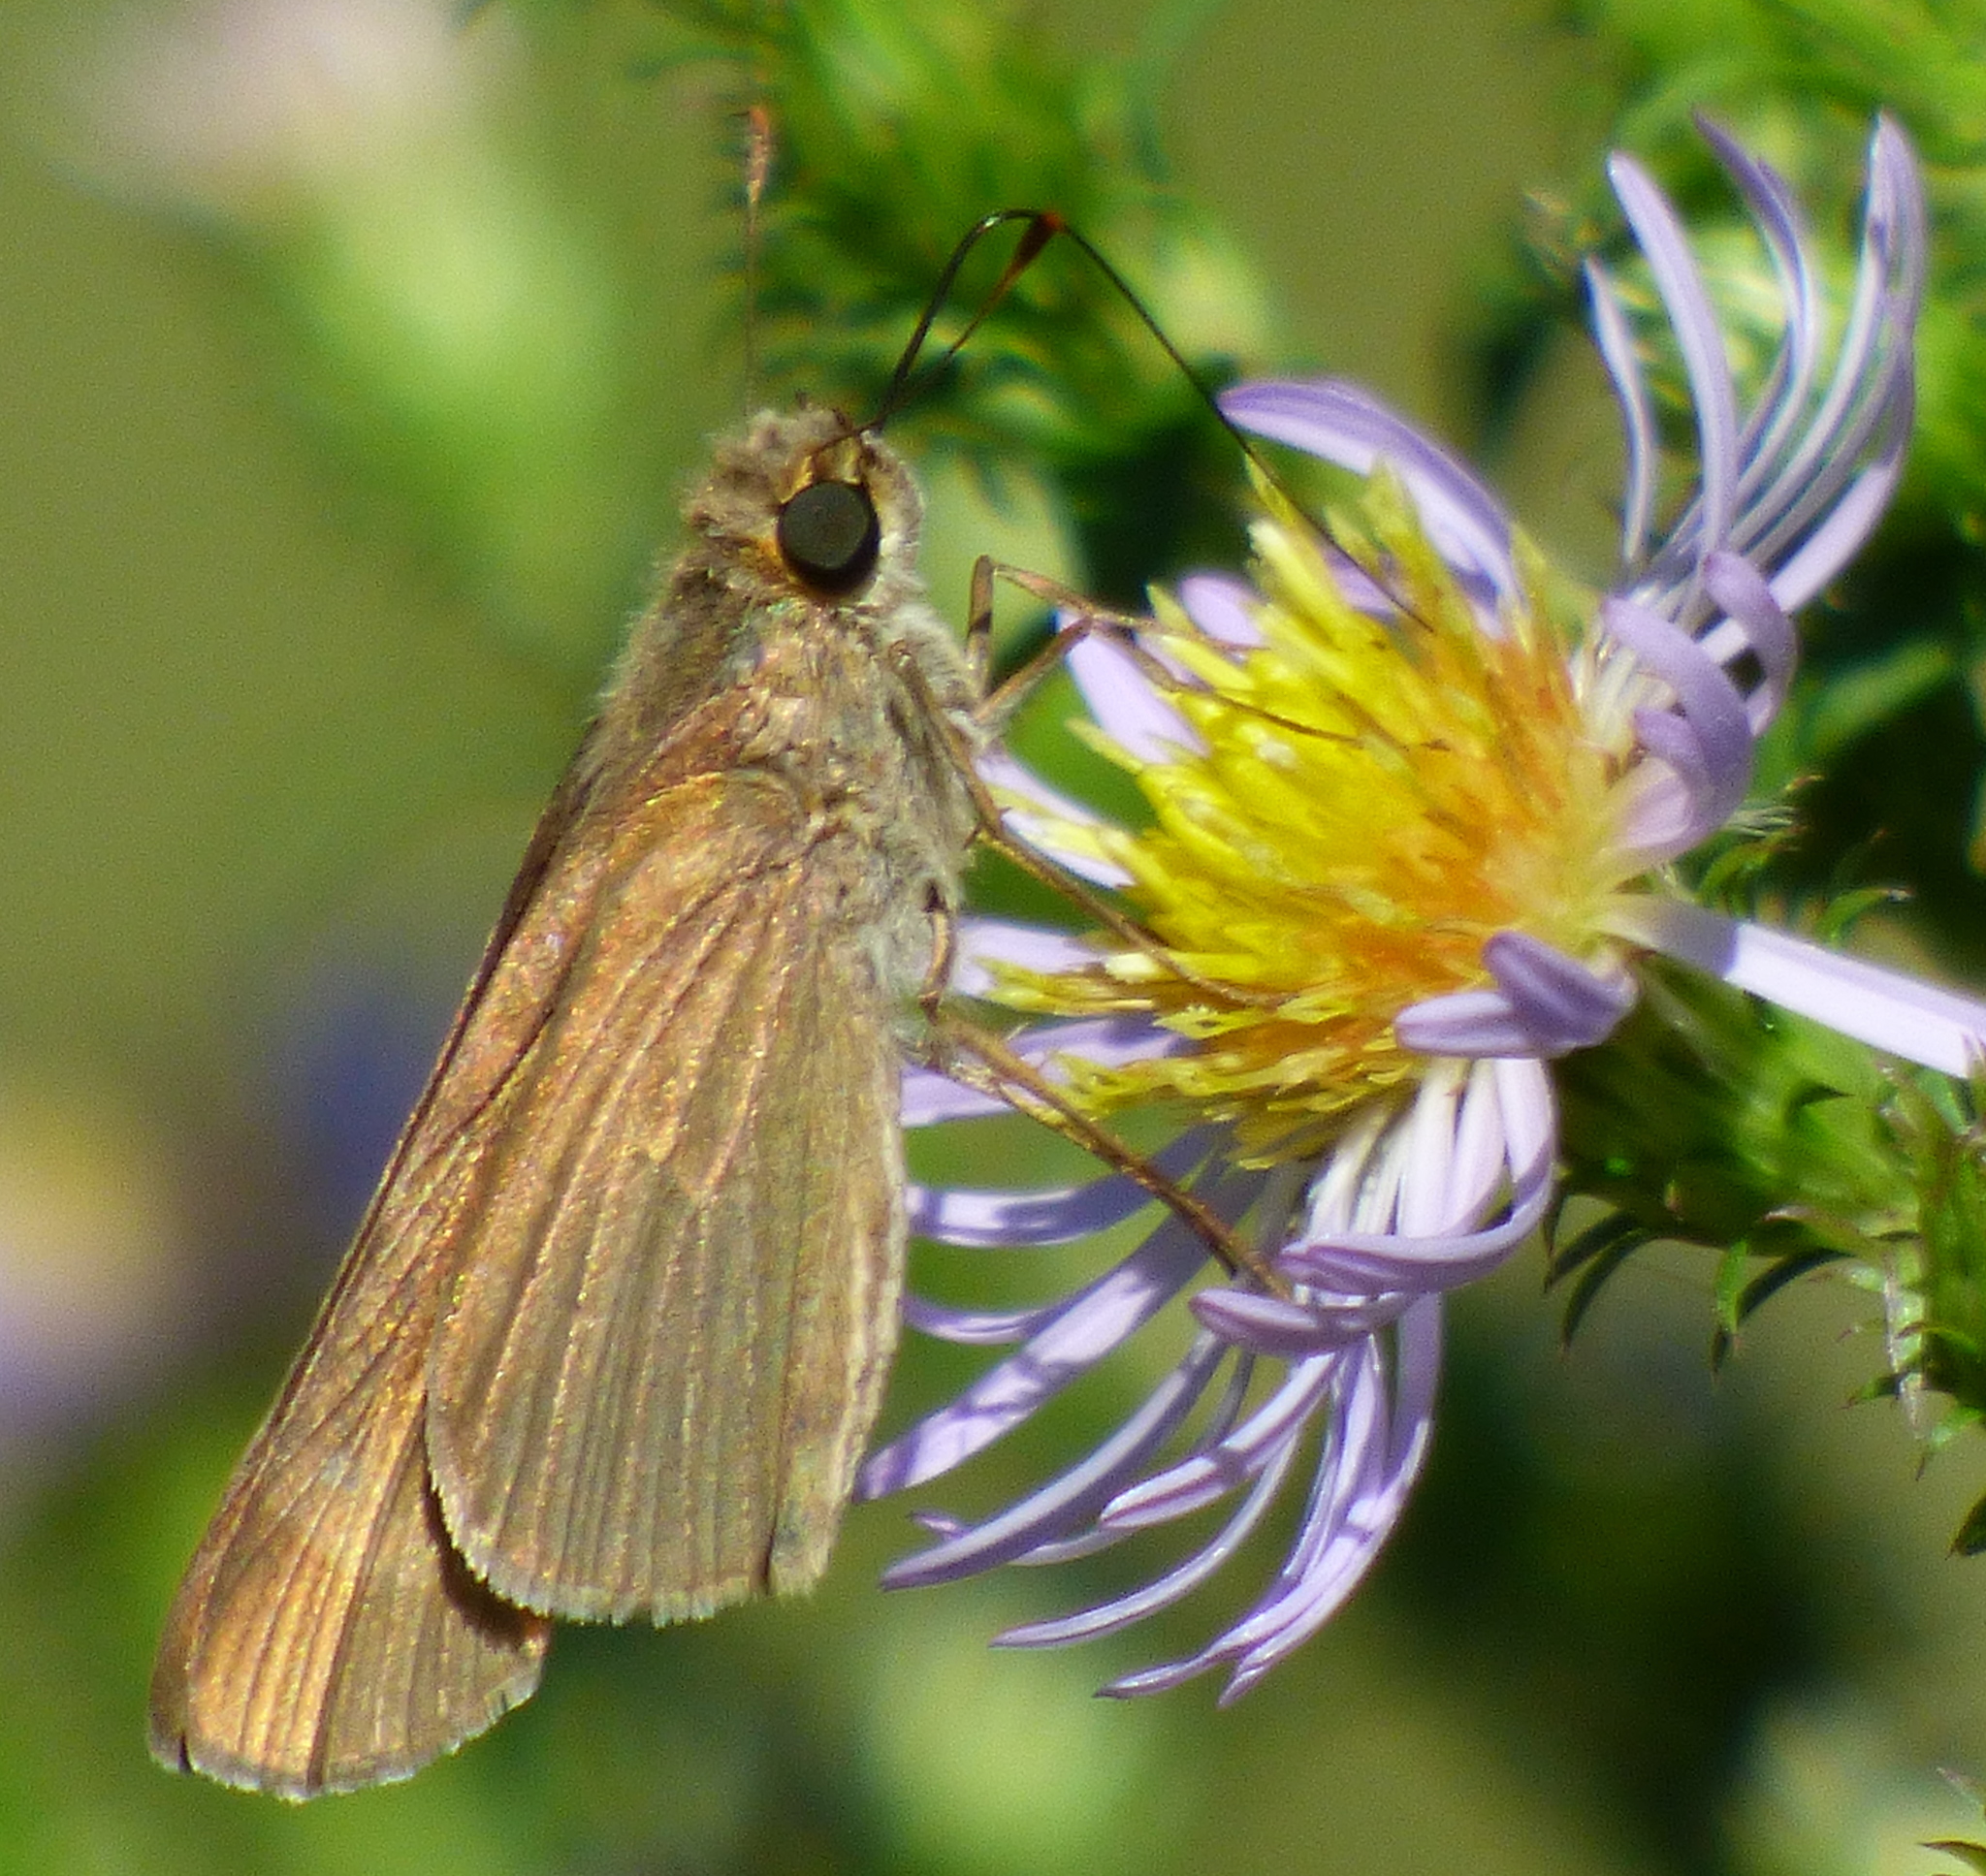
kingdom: Animalia
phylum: Arthropoda
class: Insecta
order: Lepidoptera
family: Hesperiidae
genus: Panoquina
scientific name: Panoquina ocola
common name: Ocola skipper
